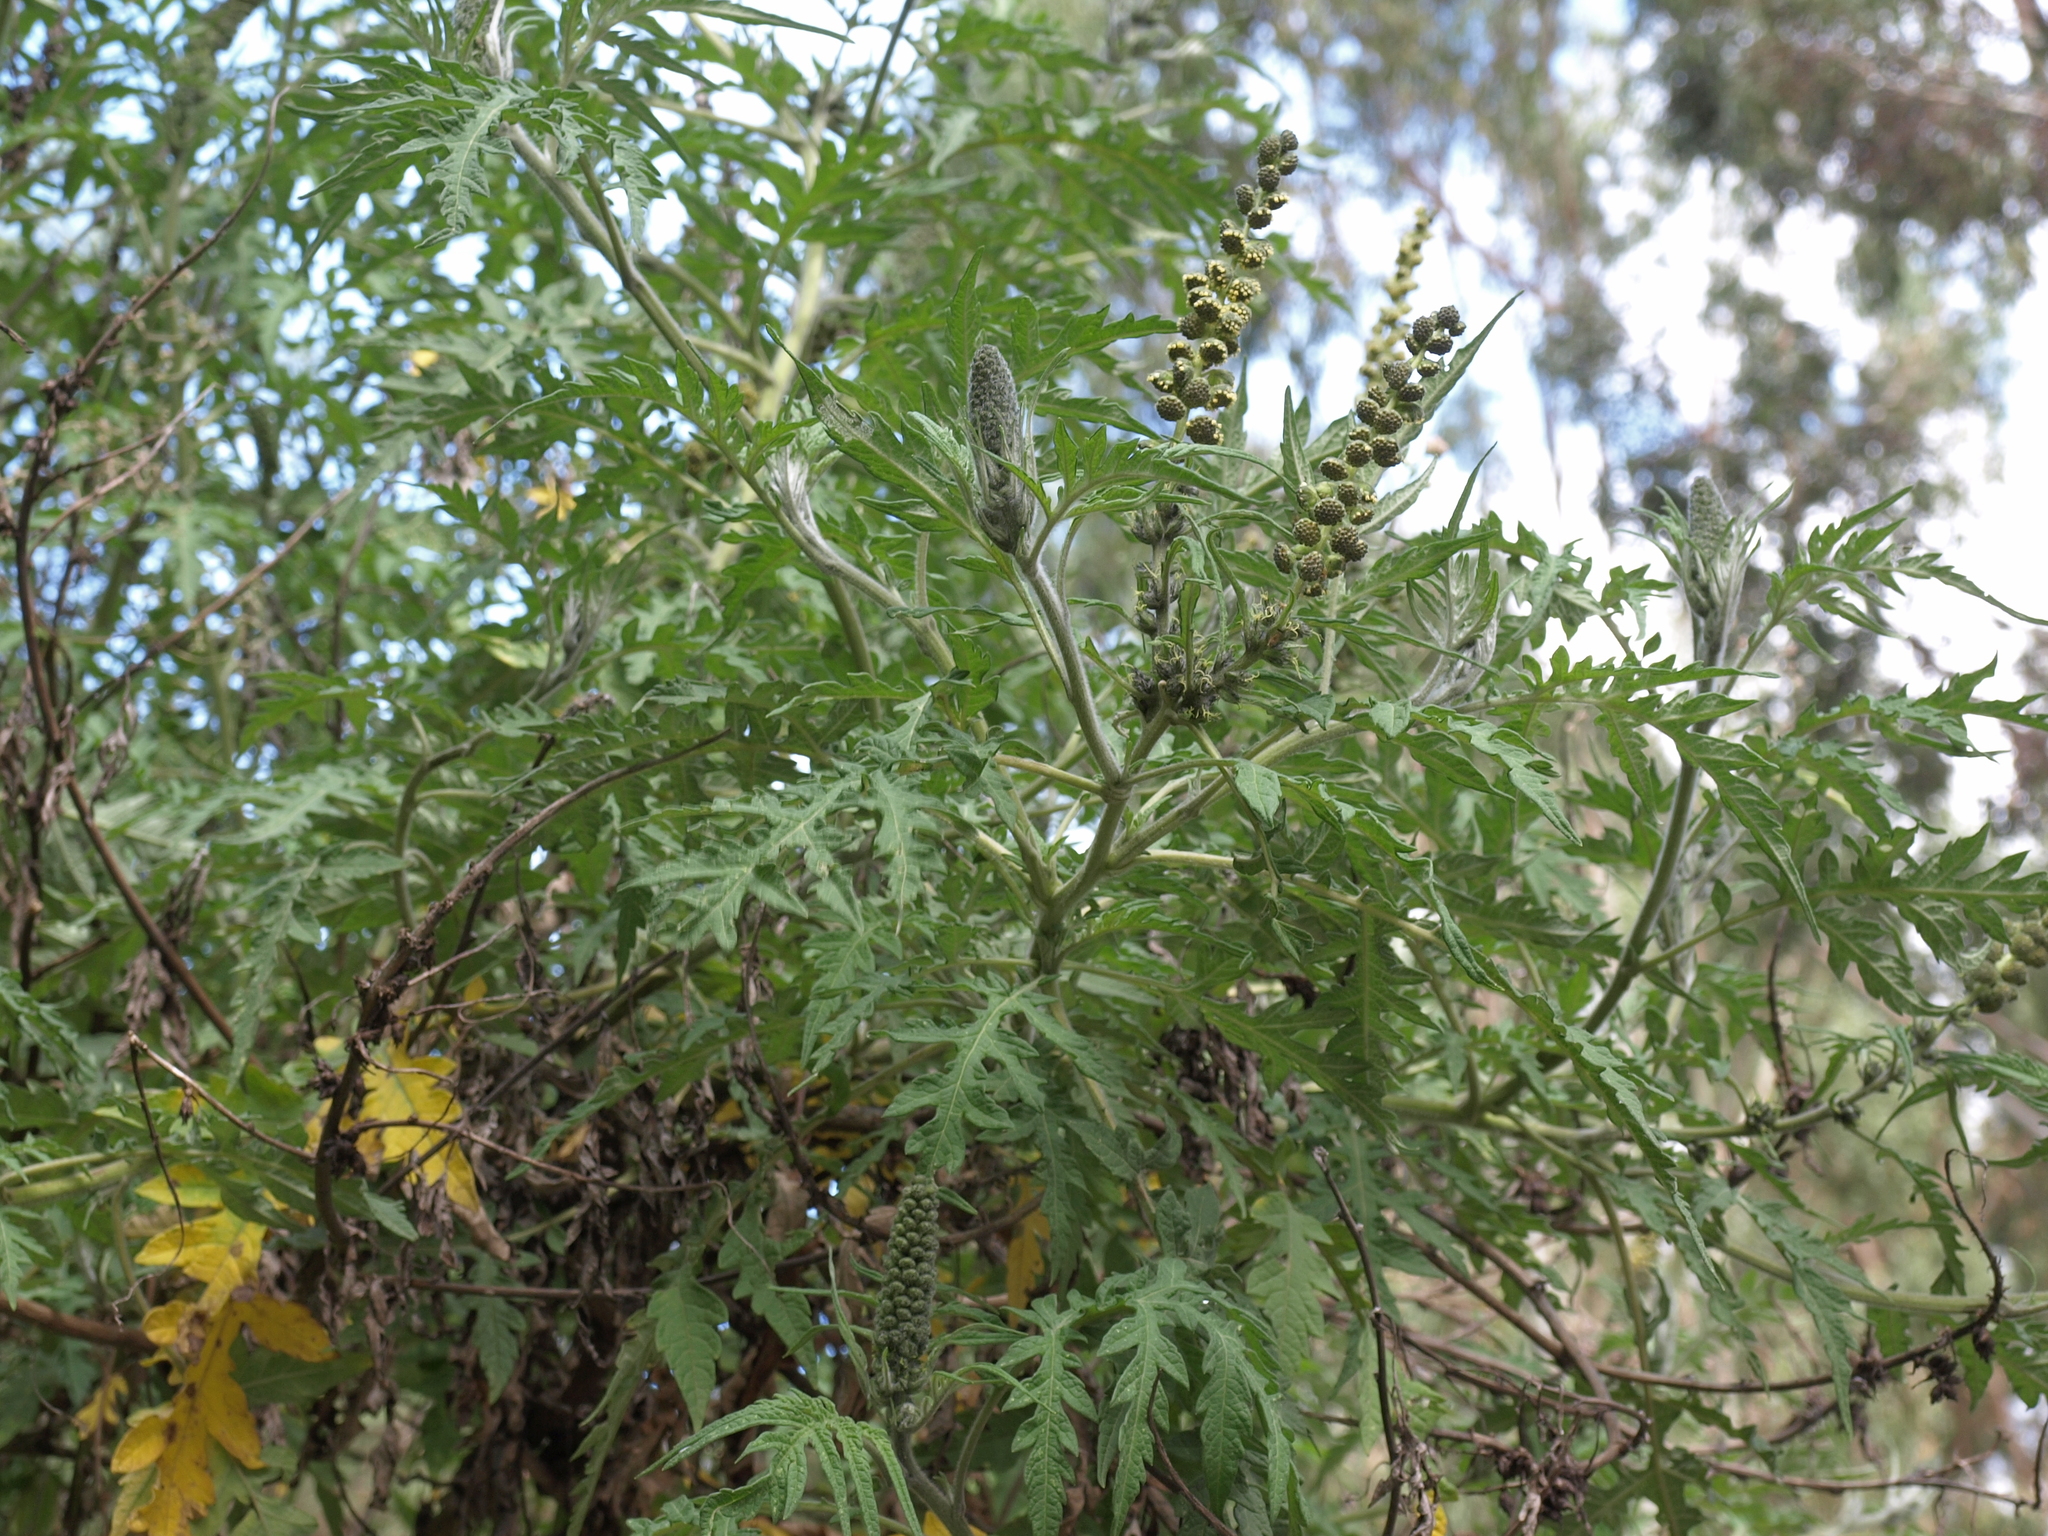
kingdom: Plantae
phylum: Tracheophyta
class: Magnoliopsida
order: Asterales
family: Asteraceae
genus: Ambrosia
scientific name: Ambrosia arborescens
